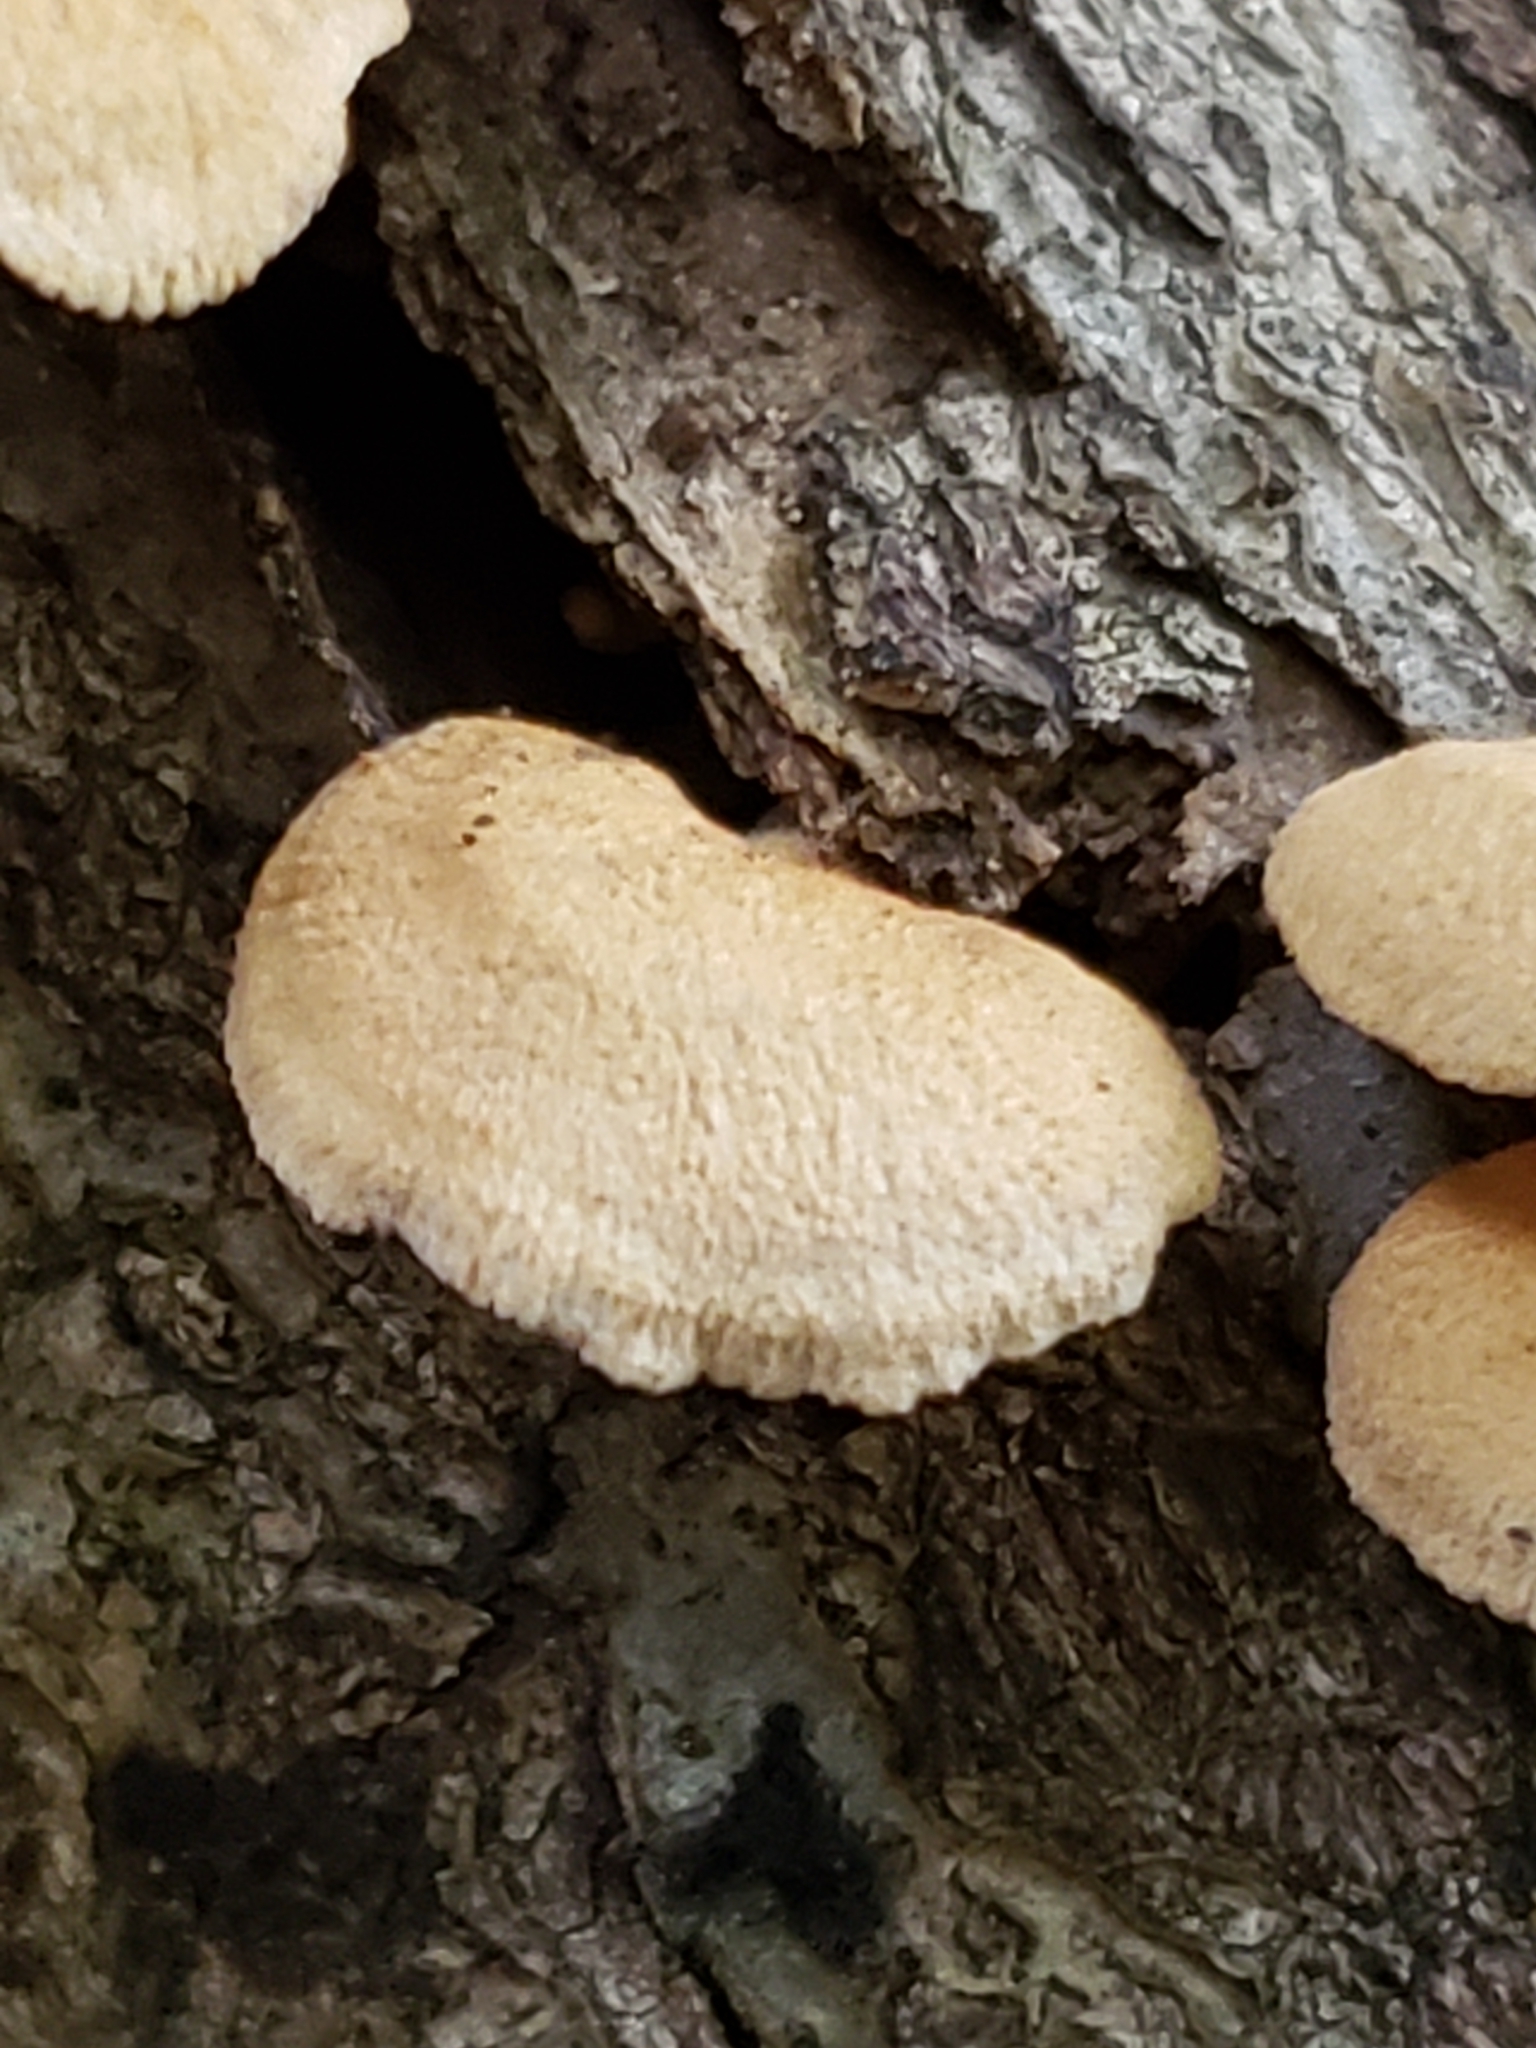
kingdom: Fungi
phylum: Basidiomycota
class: Agaricomycetes
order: Agaricales
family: Mycenaceae
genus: Panellus
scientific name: Panellus stipticus
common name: Bitter oysterling
